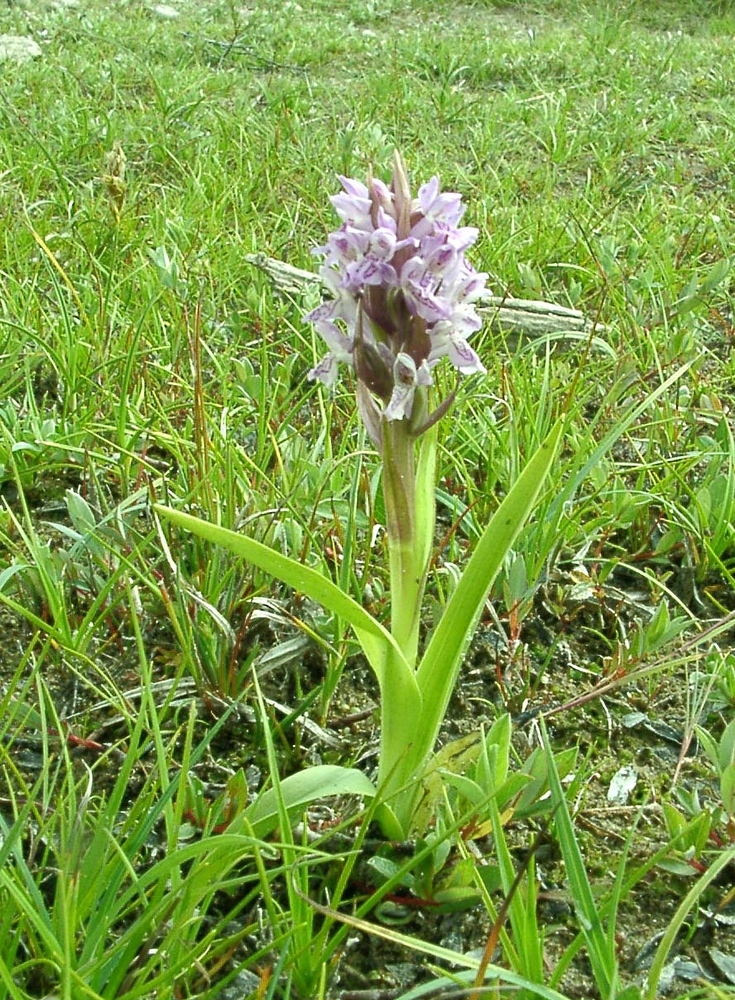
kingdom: Plantae
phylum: Tracheophyta
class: Liliopsida
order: Asparagales
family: Orchidaceae
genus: Dactylorhiza
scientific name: Dactylorhiza incarnata
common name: Early marsh-orchid
